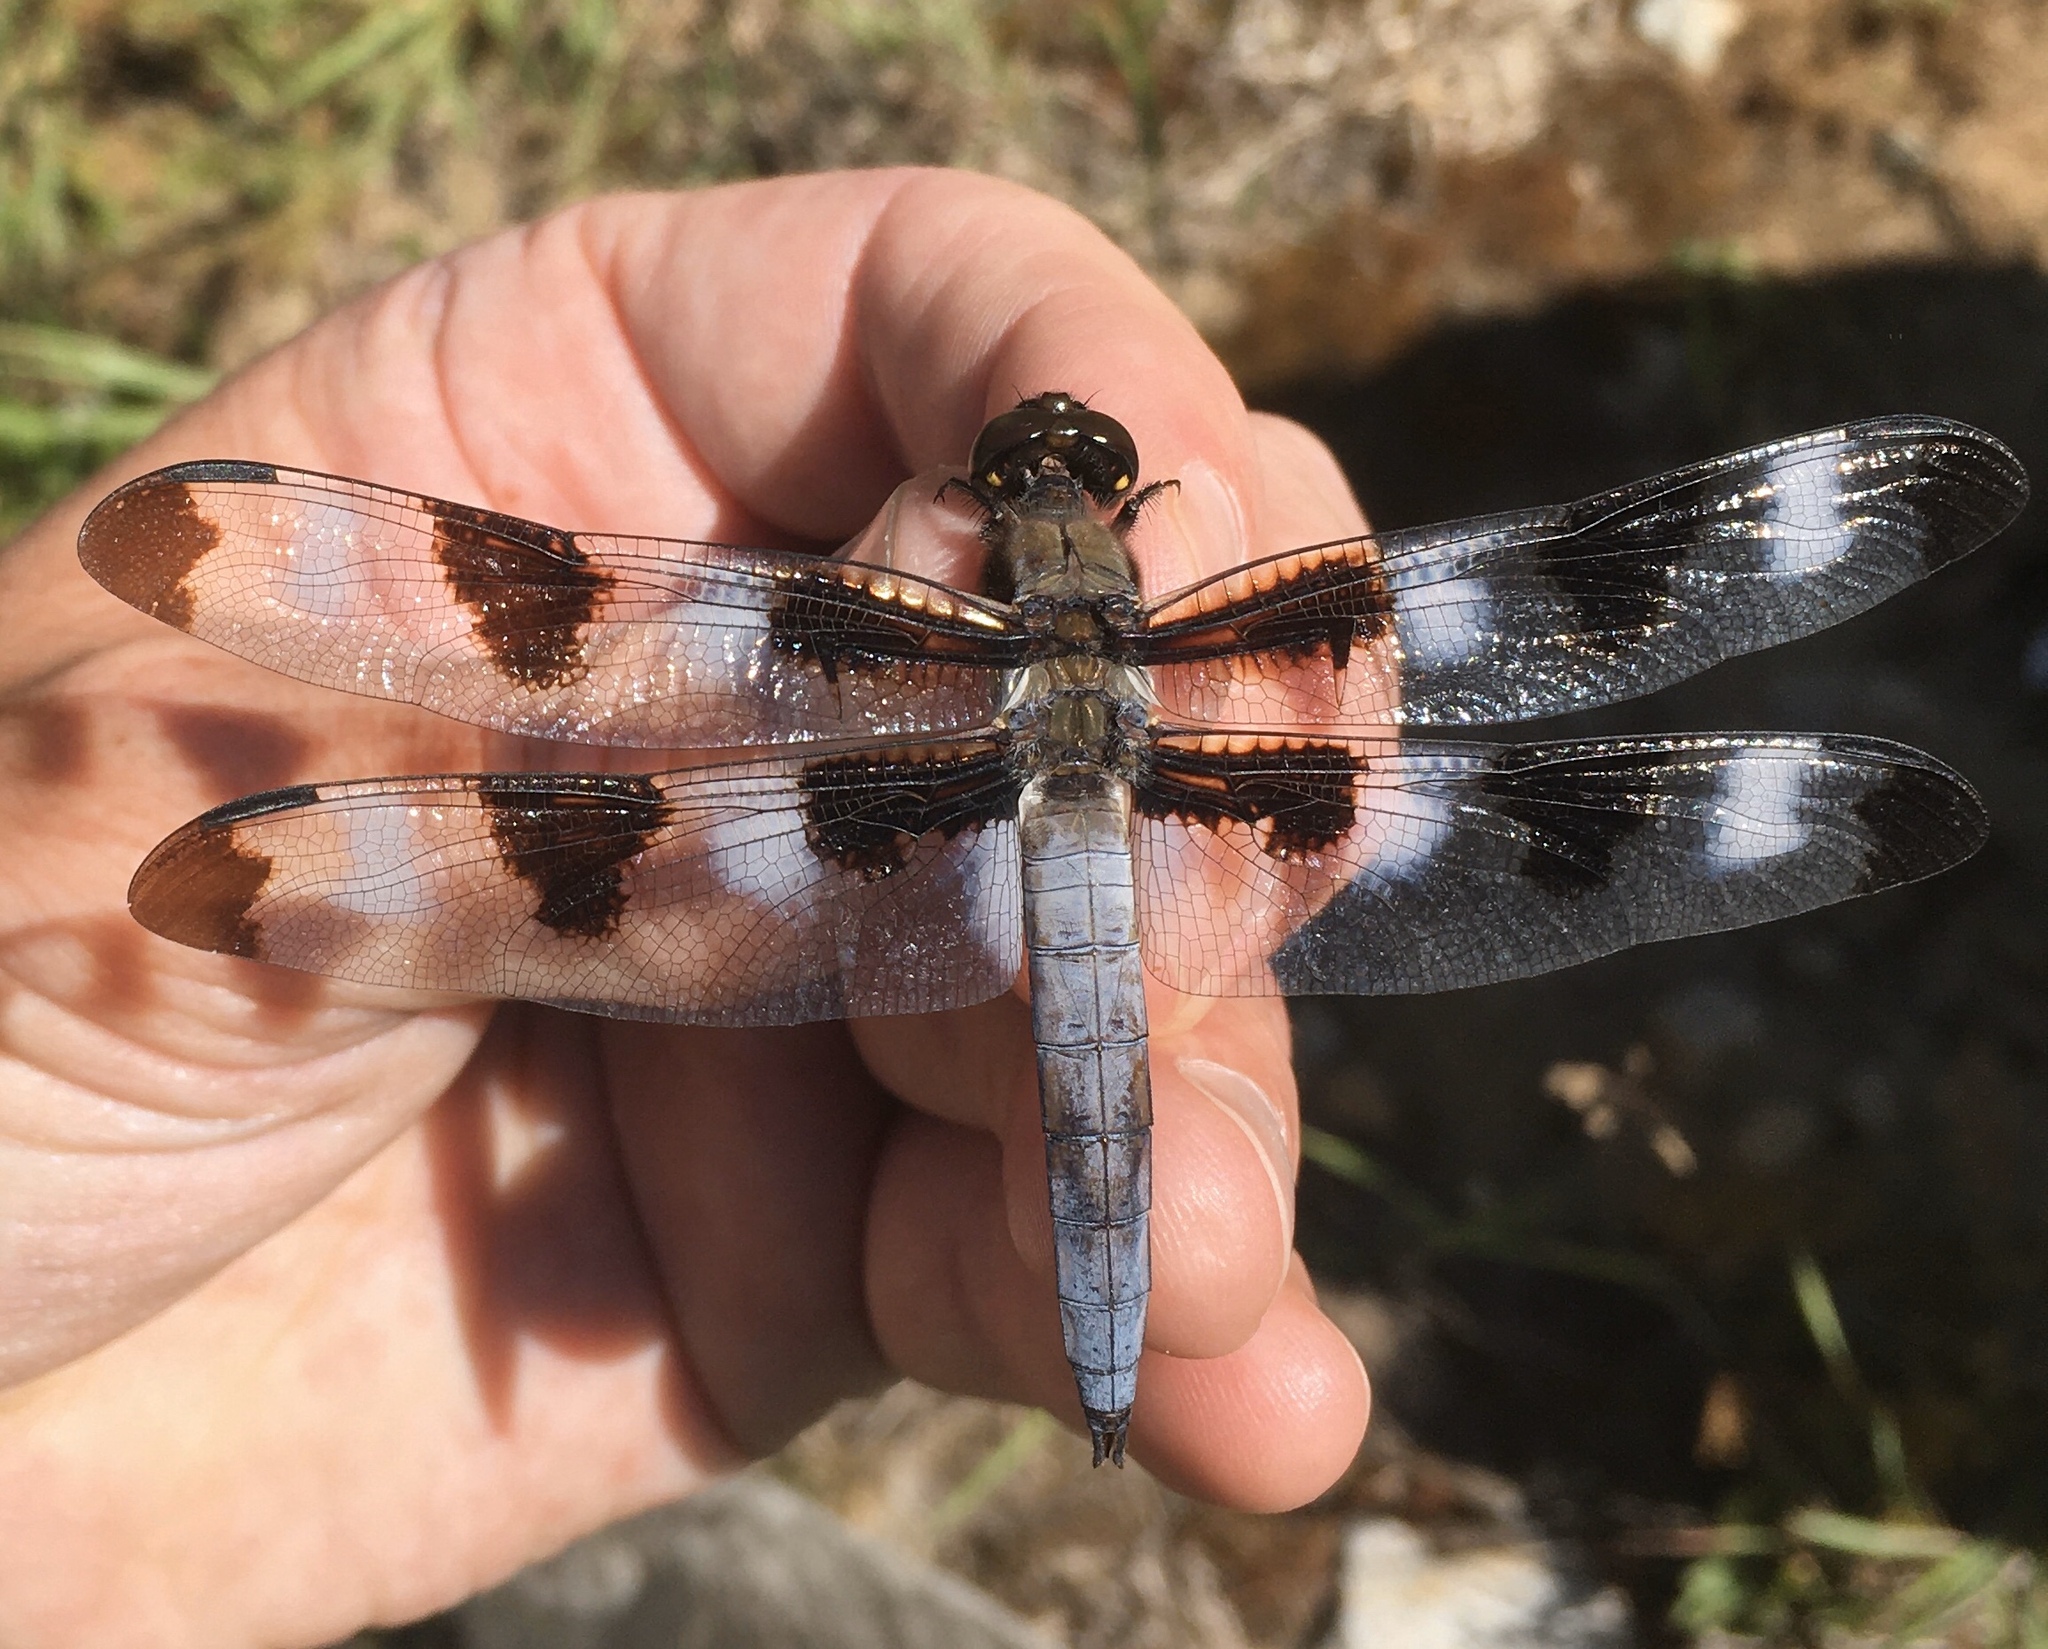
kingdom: Animalia
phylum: Arthropoda
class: Insecta
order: Odonata
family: Libellulidae
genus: Libellula
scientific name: Libellula pulchella
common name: Twelve-spotted skimmer
